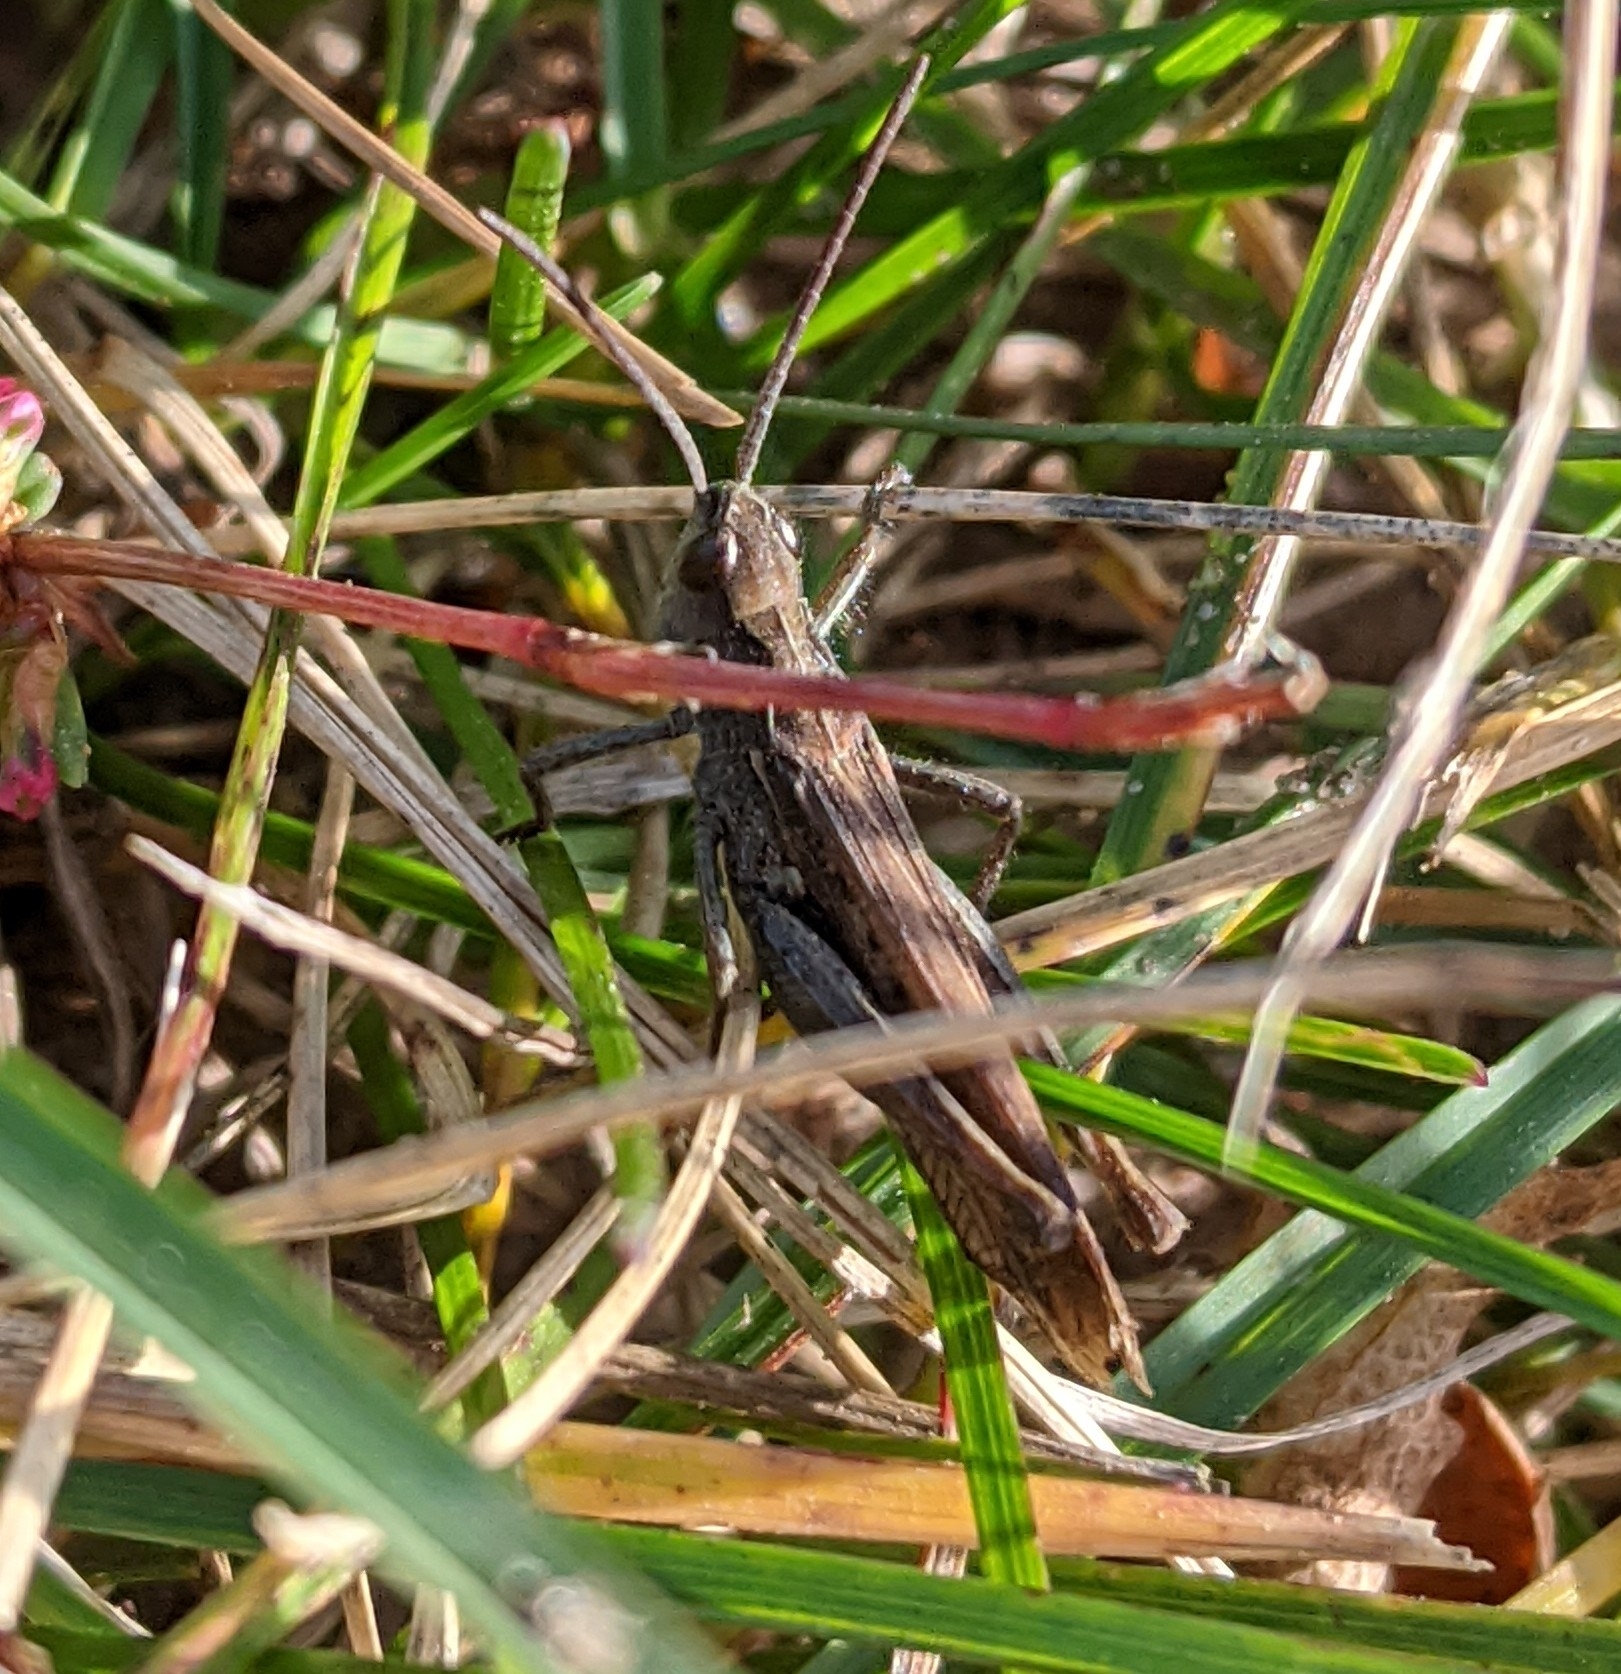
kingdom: Animalia
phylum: Arthropoda
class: Insecta
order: Orthoptera
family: Acrididae
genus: Chorthippus
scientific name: Chorthippus brunneus
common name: Field grasshopper
